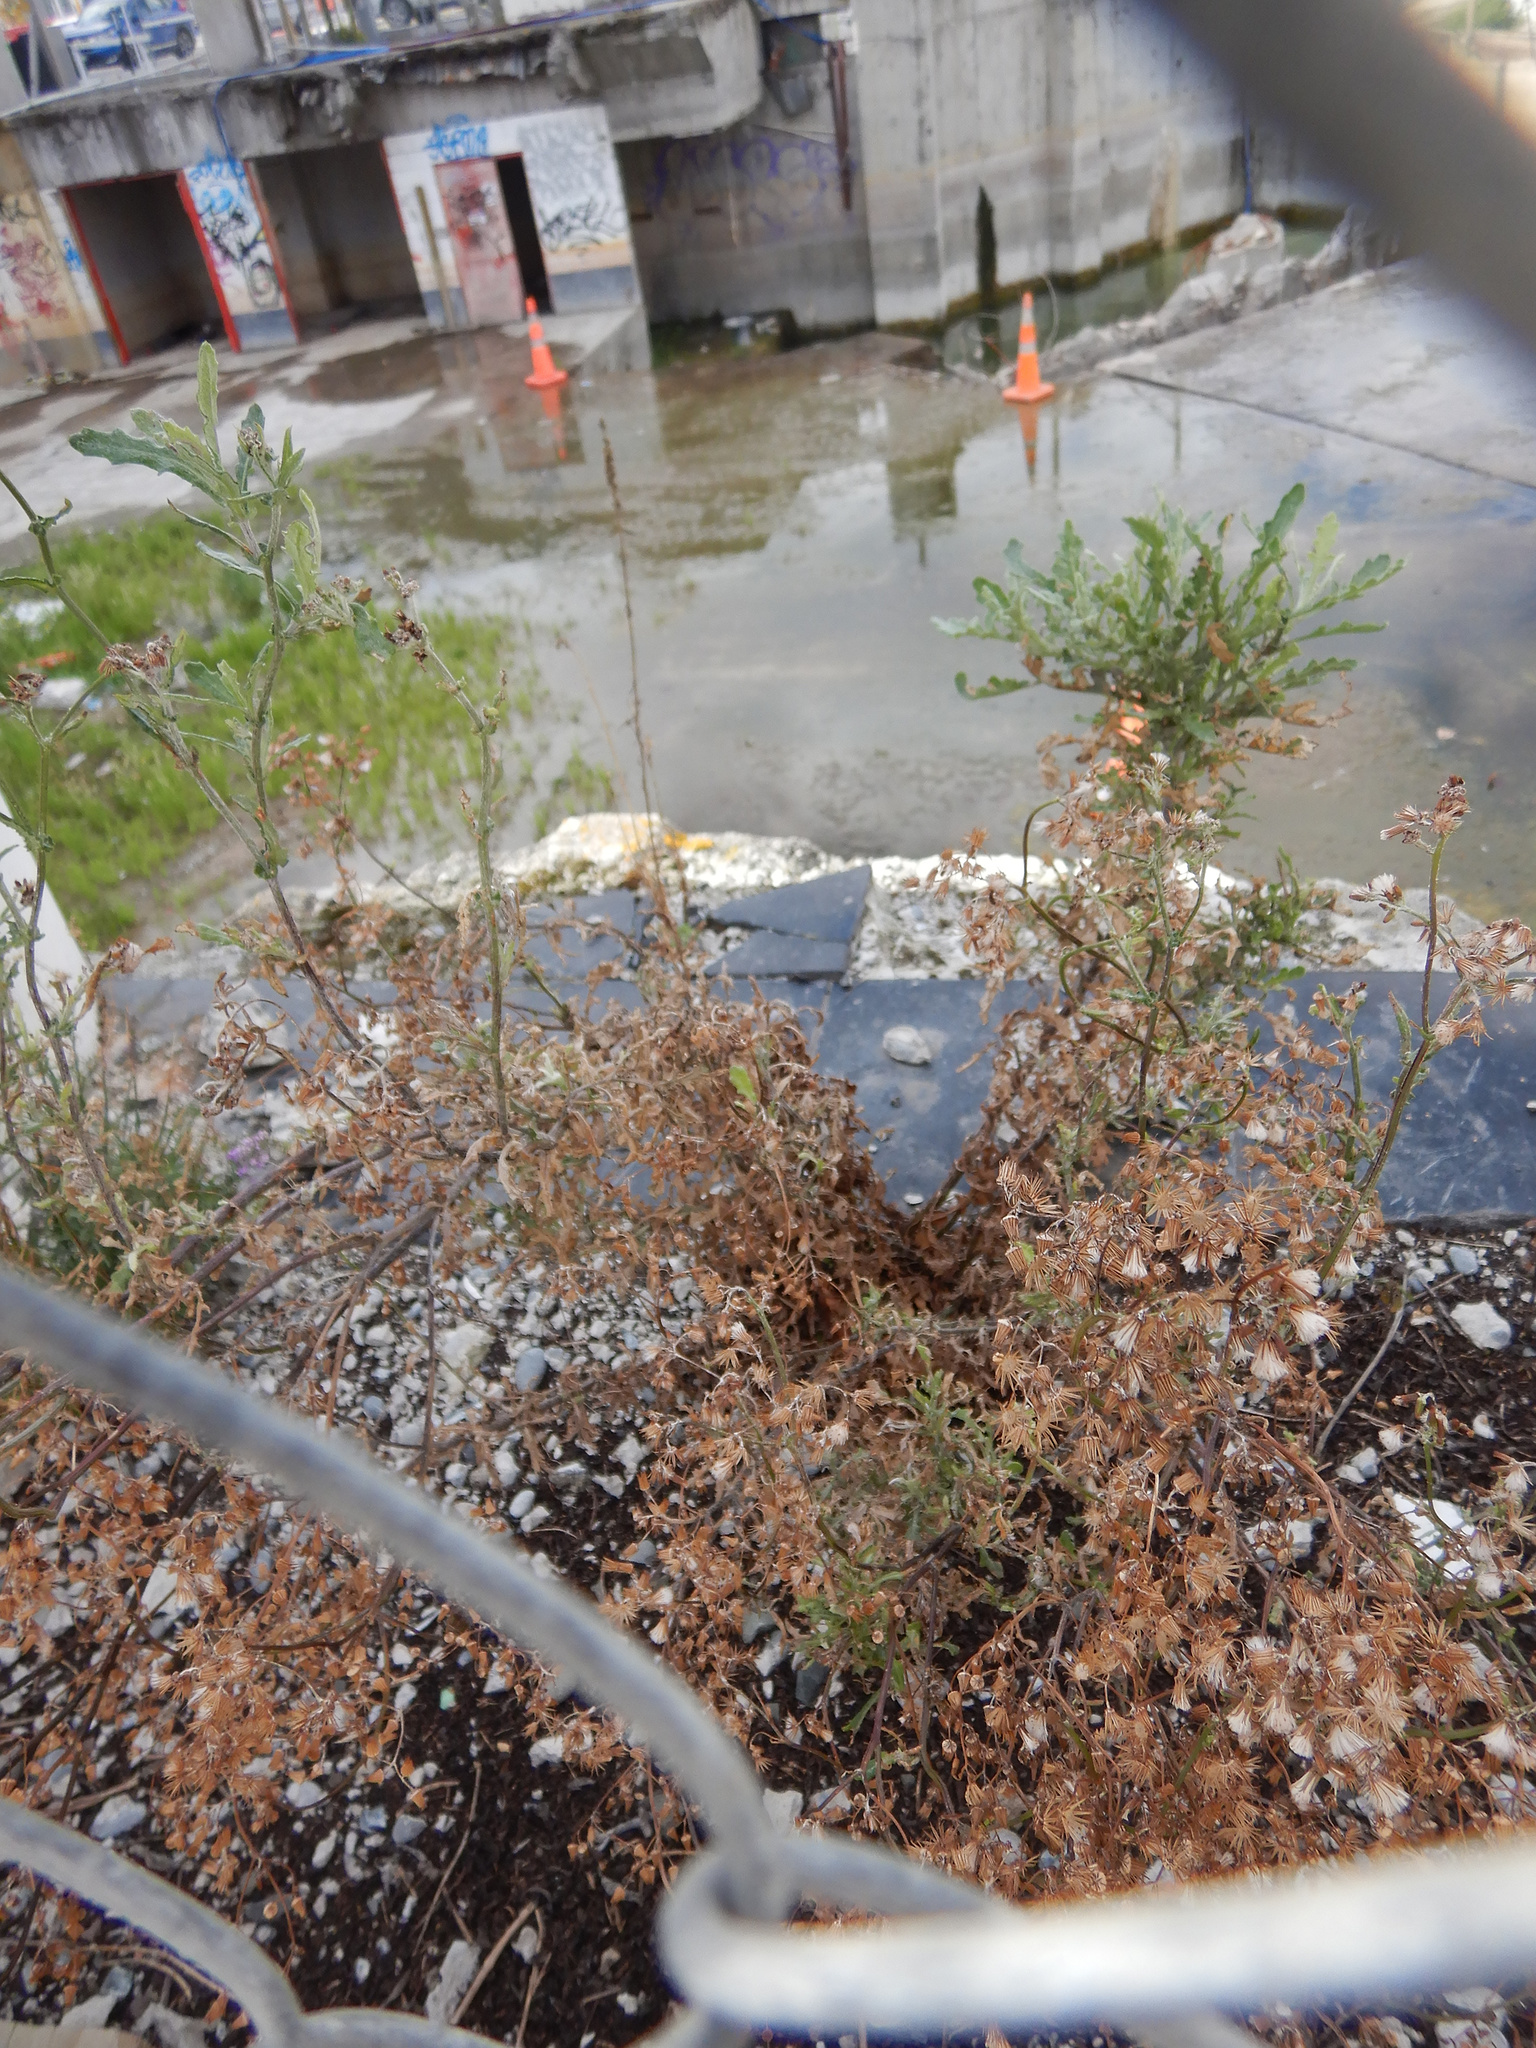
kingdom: Plantae
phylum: Tracheophyta
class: Magnoliopsida
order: Asterales
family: Asteraceae
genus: Senecio
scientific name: Senecio glomeratus
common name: Cutleaf burnweed
